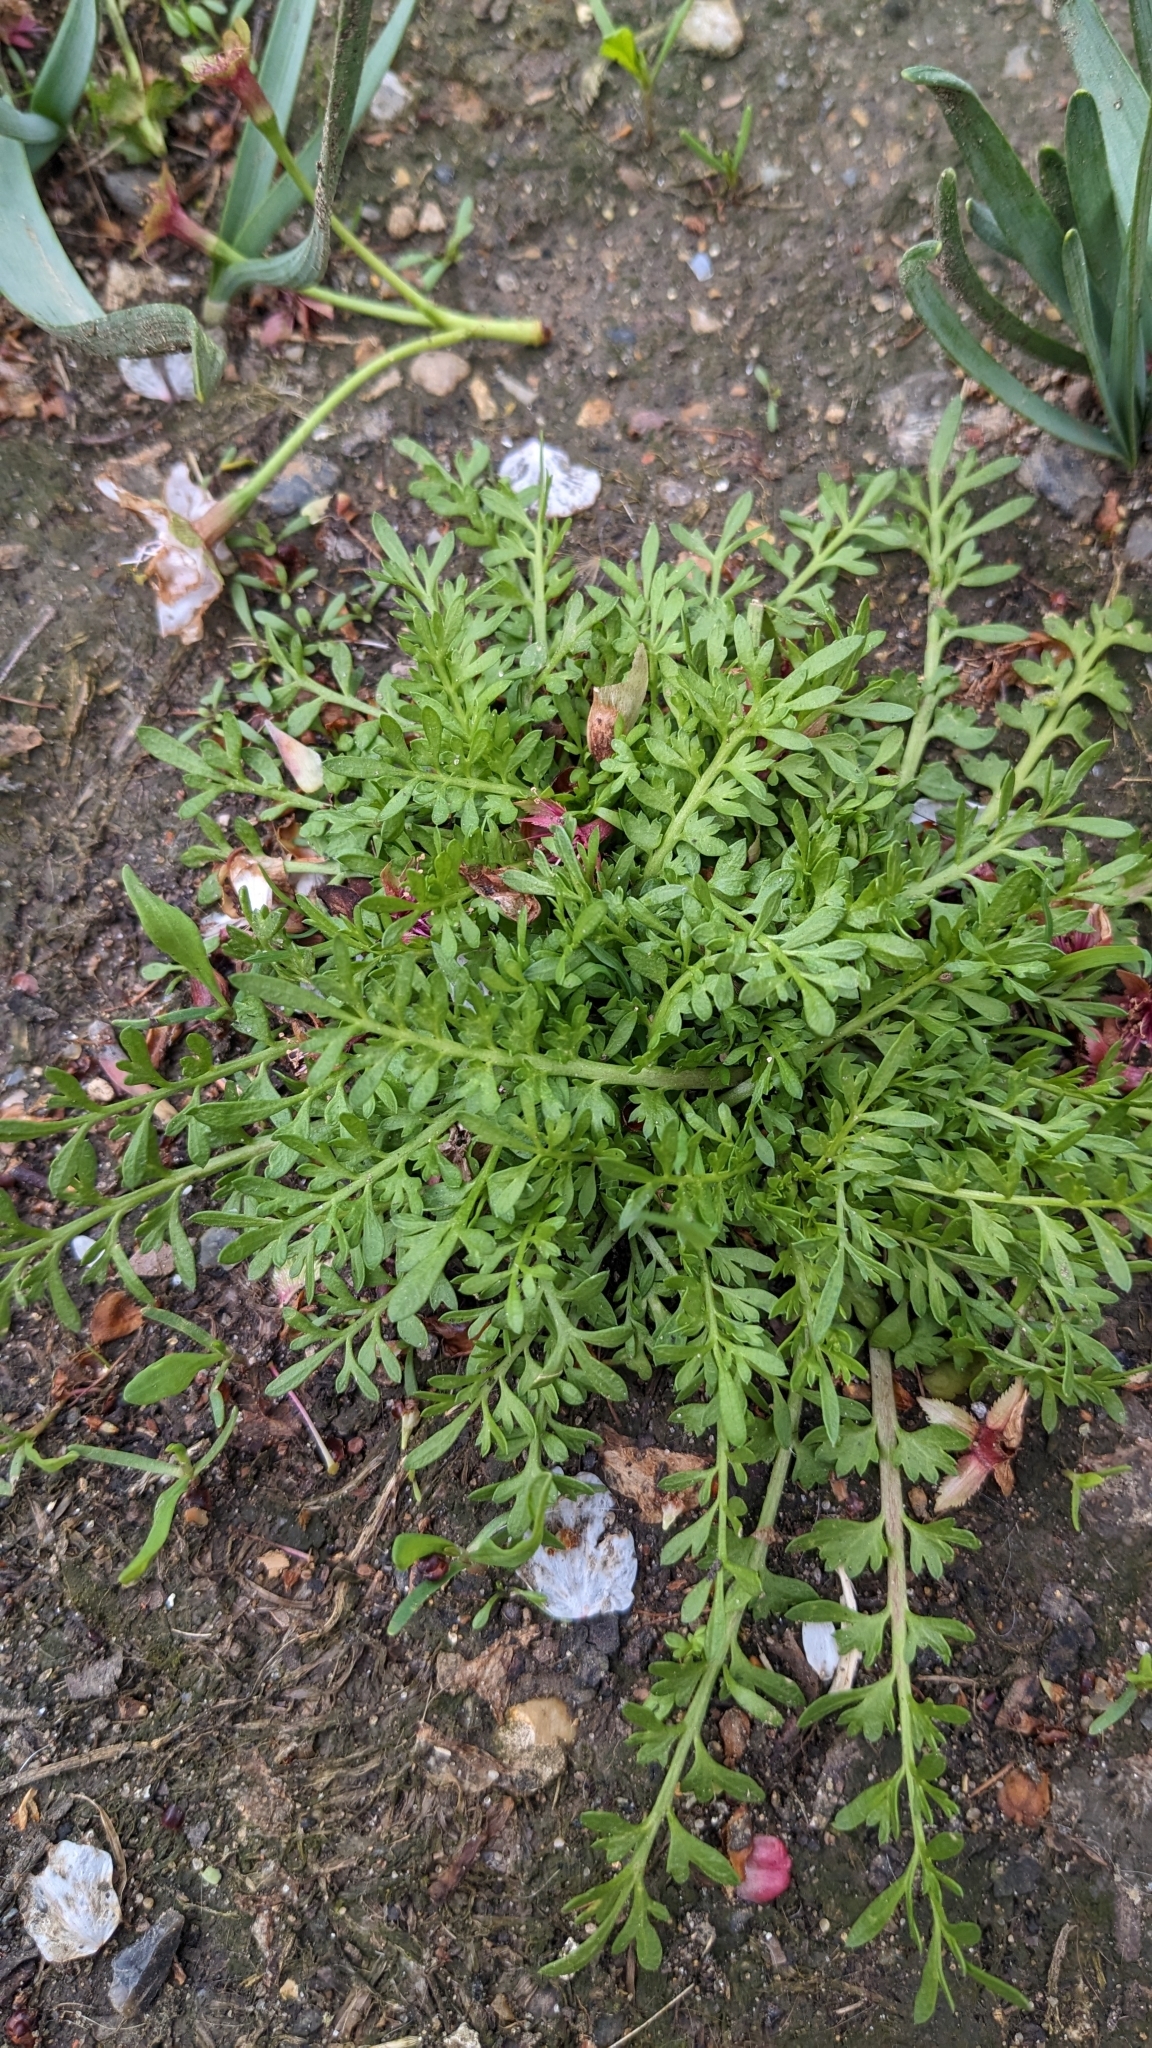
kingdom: Plantae
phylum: Tracheophyta
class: Magnoliopsida
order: Brassicales
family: Brassicaceae
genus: Lepidium
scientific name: Lepidium didymum
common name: Lesser swinecress
